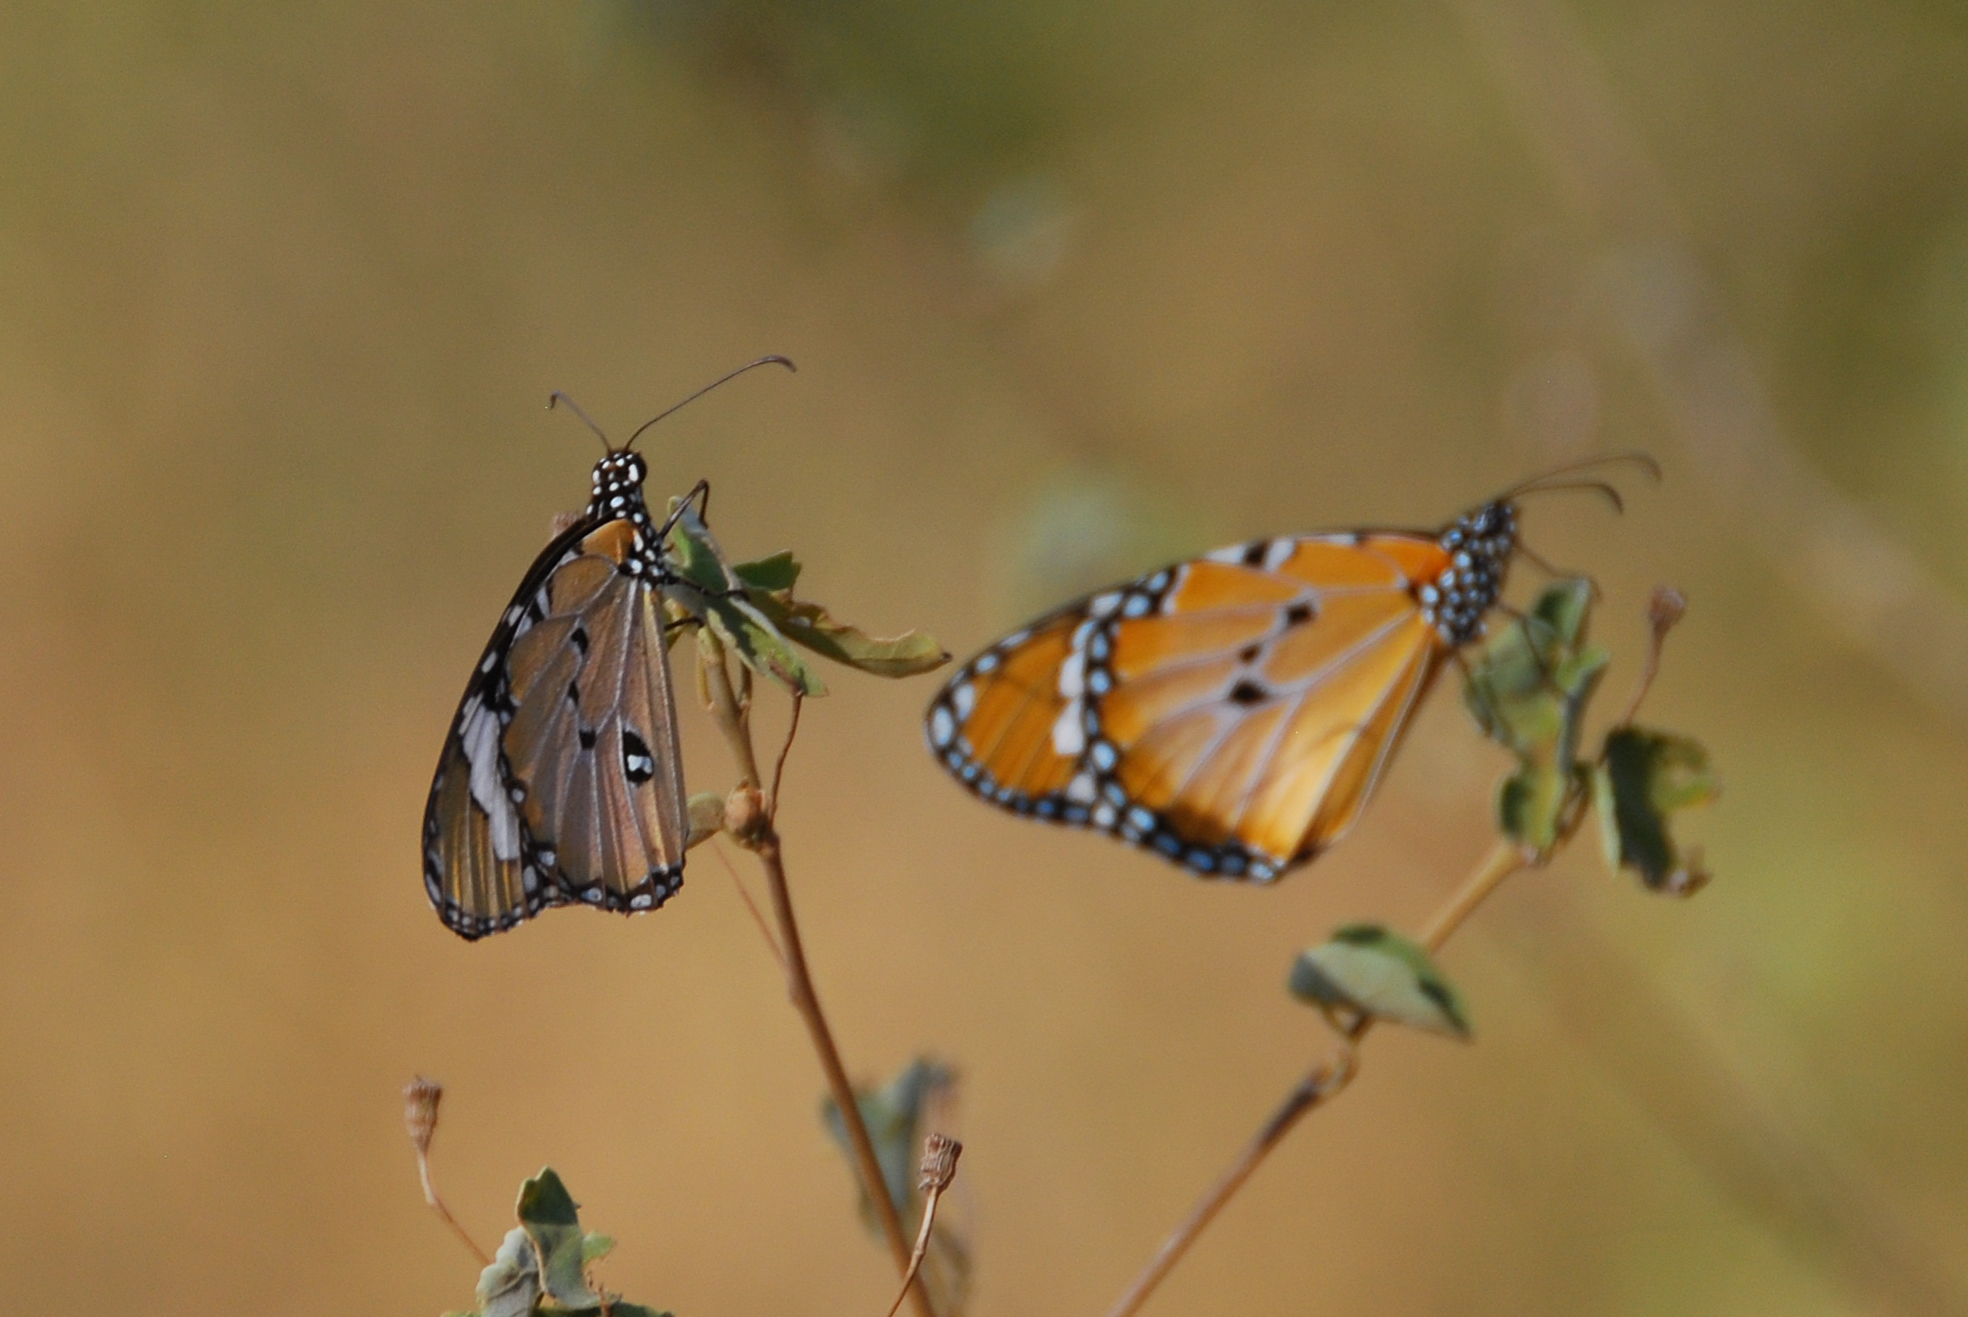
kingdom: Animalia
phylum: Arthropoda
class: Insecta
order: Lepidoptera
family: Nymphalidae
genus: Danaus
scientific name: Danaus chrysippus
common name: Plain tiger
